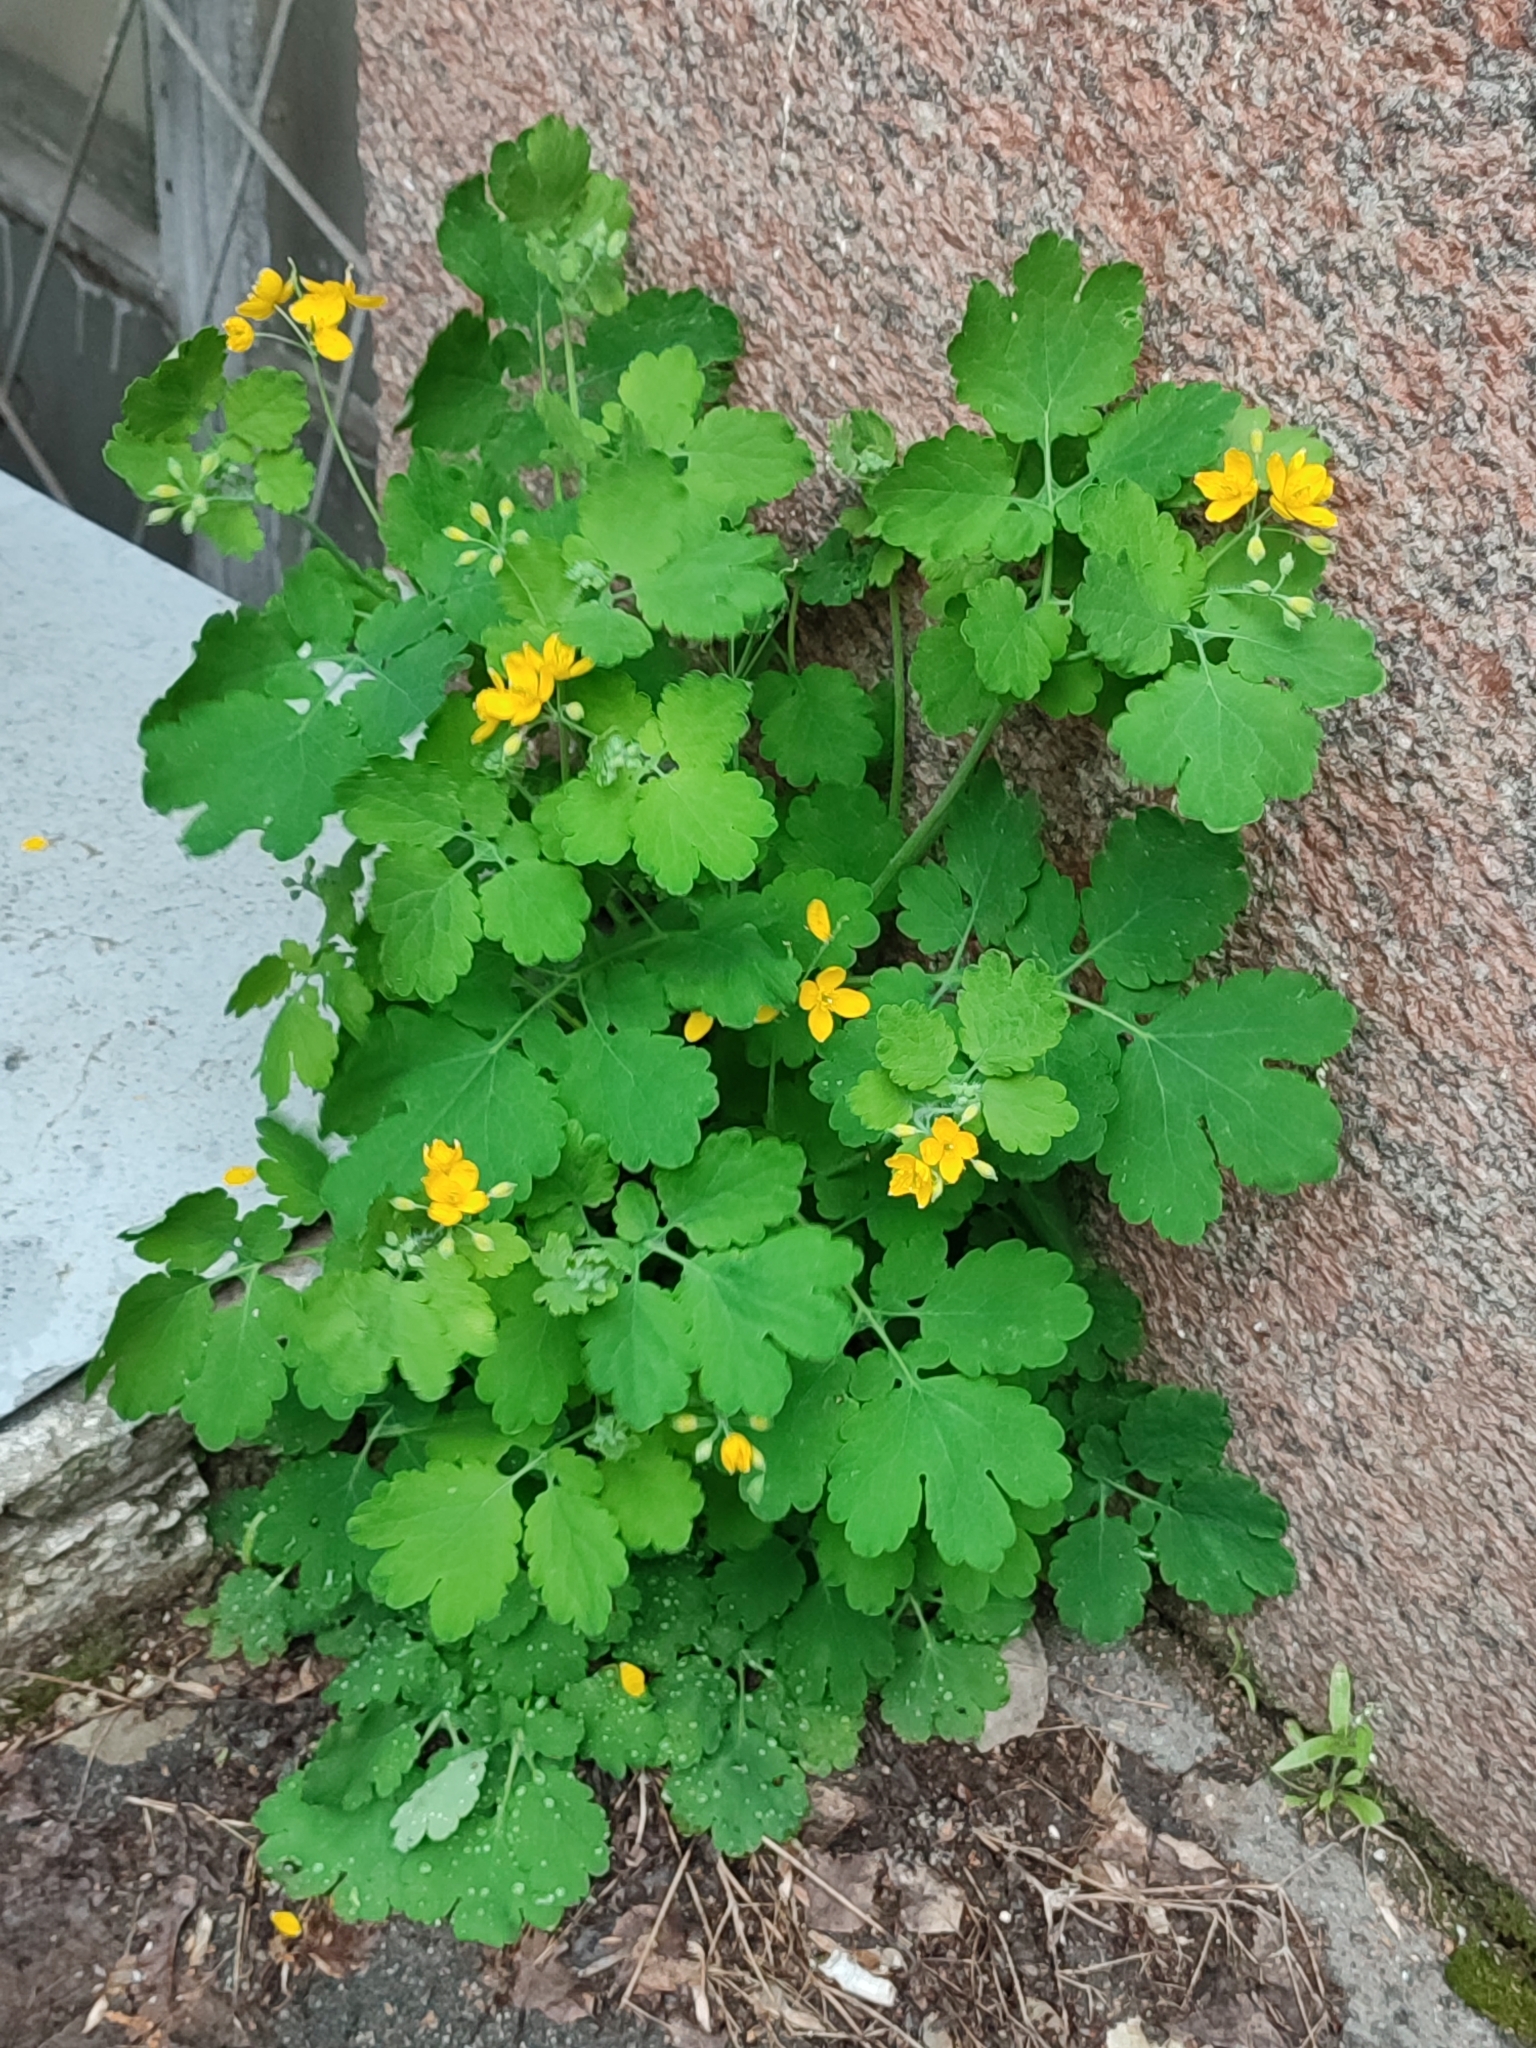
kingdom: Plantae
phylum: Tracheophyta
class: Magnoliopsida
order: Ranunculales
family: Papaveraceae
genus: Chelidonium
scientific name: Chelidonium majus
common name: Greater celandine
